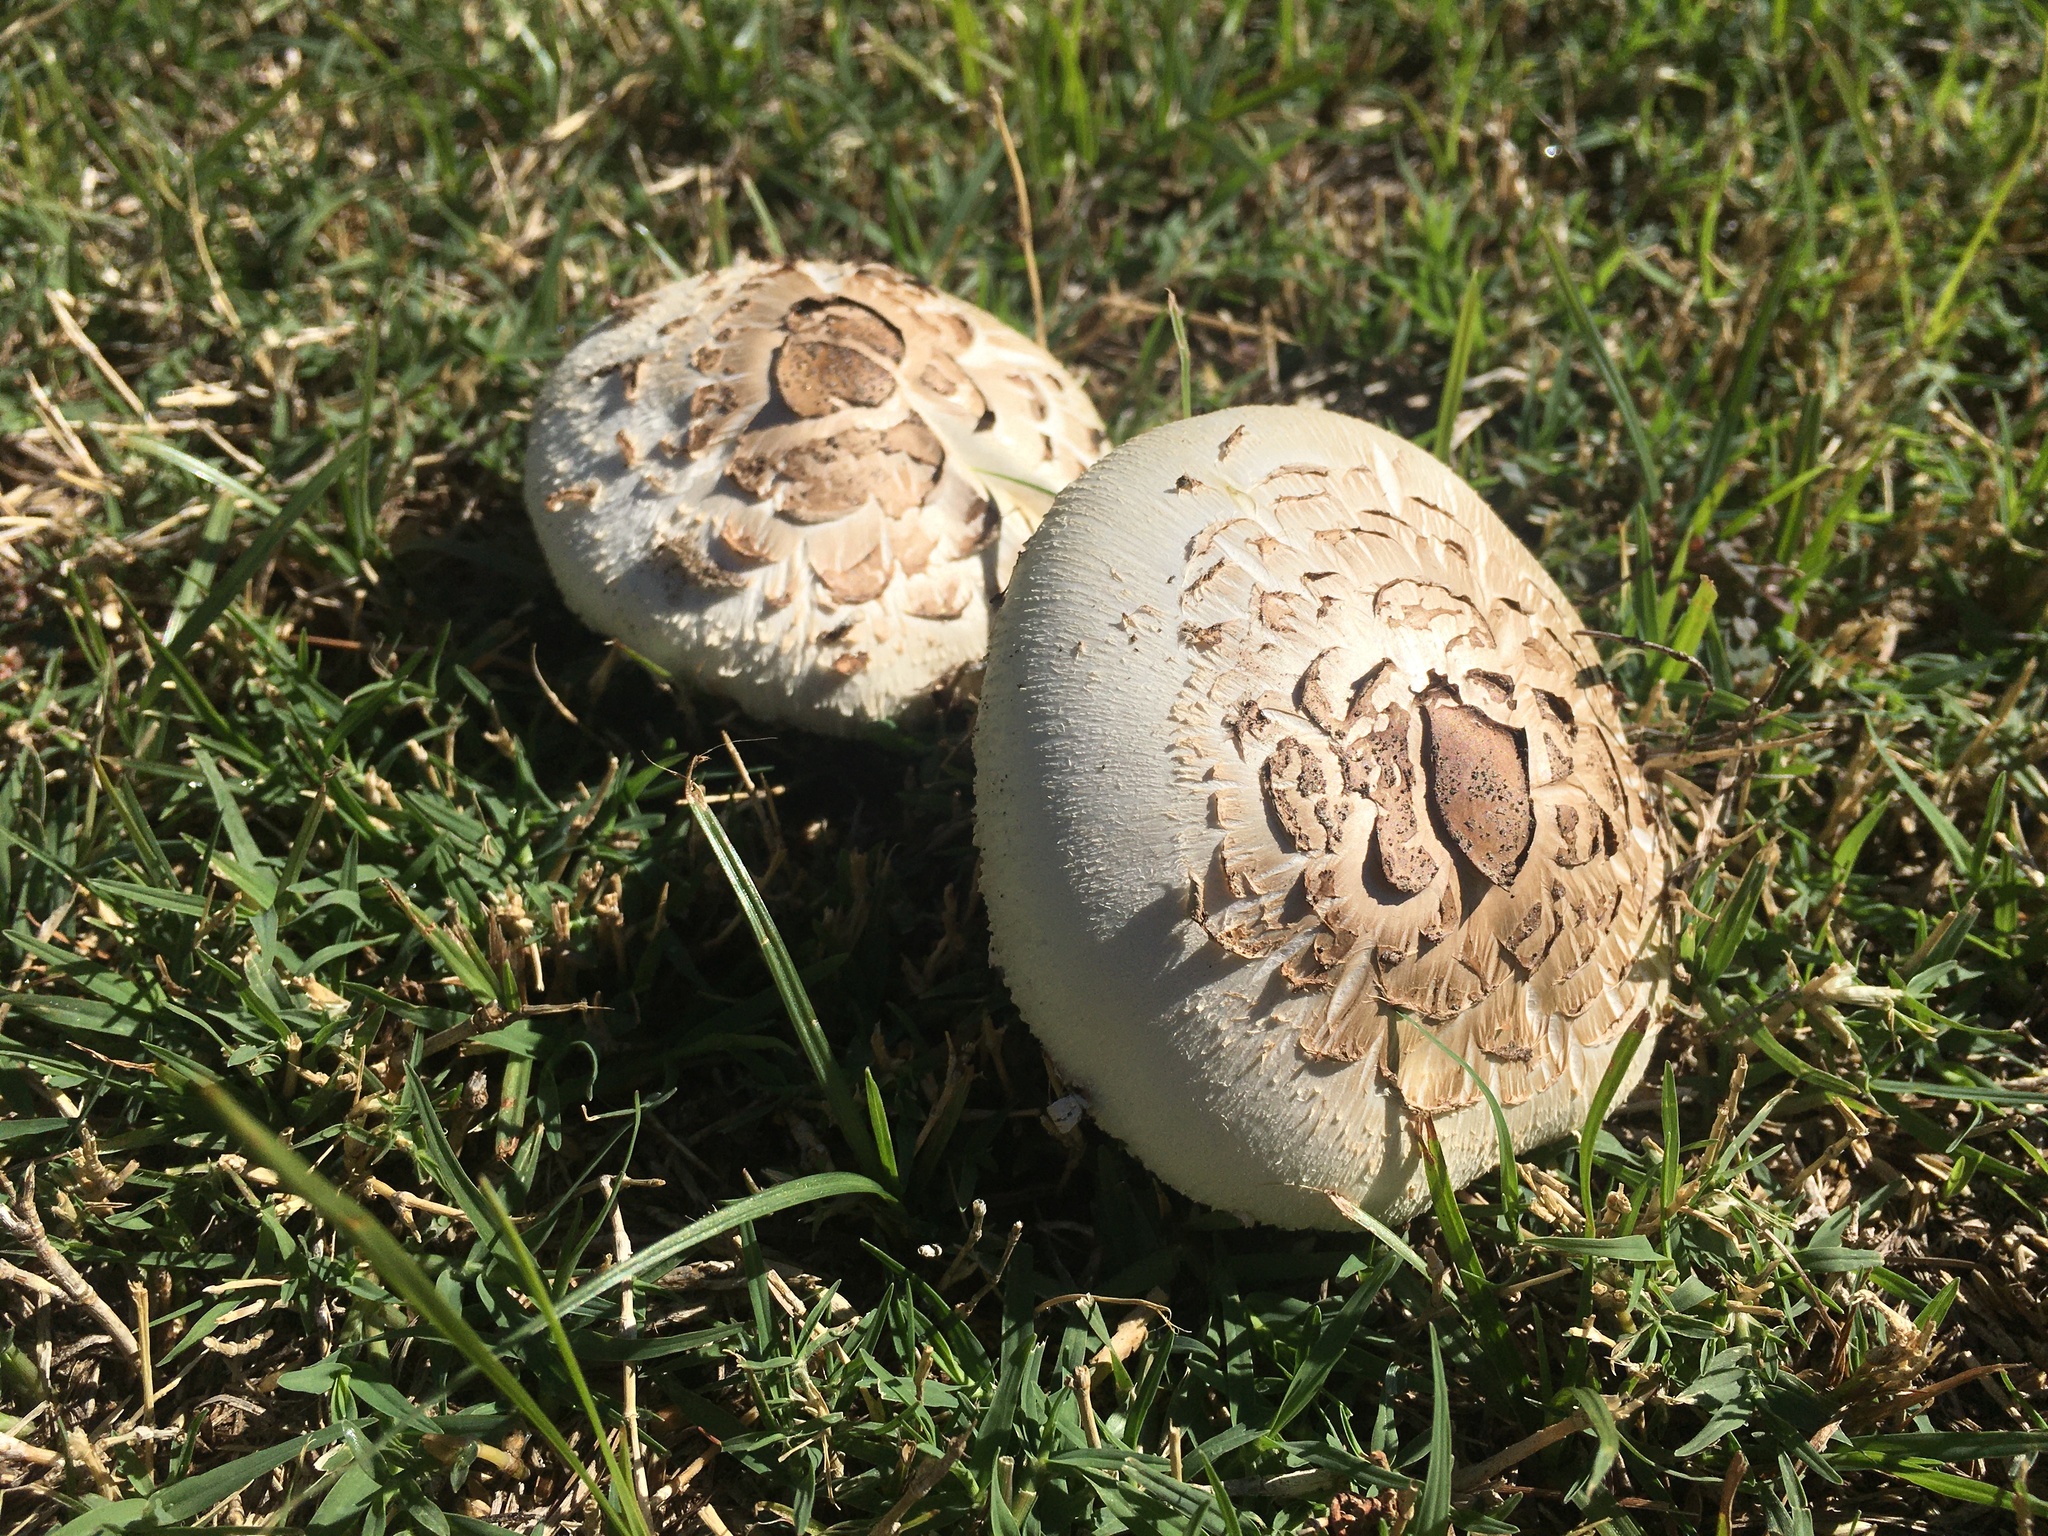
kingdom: Fungi
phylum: Basidiomycota
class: Agaricomycetes
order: Agaricales
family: Agaricaceae
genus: Chlorophyllum
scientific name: Chlorophyllum molybdites
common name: False parasol
